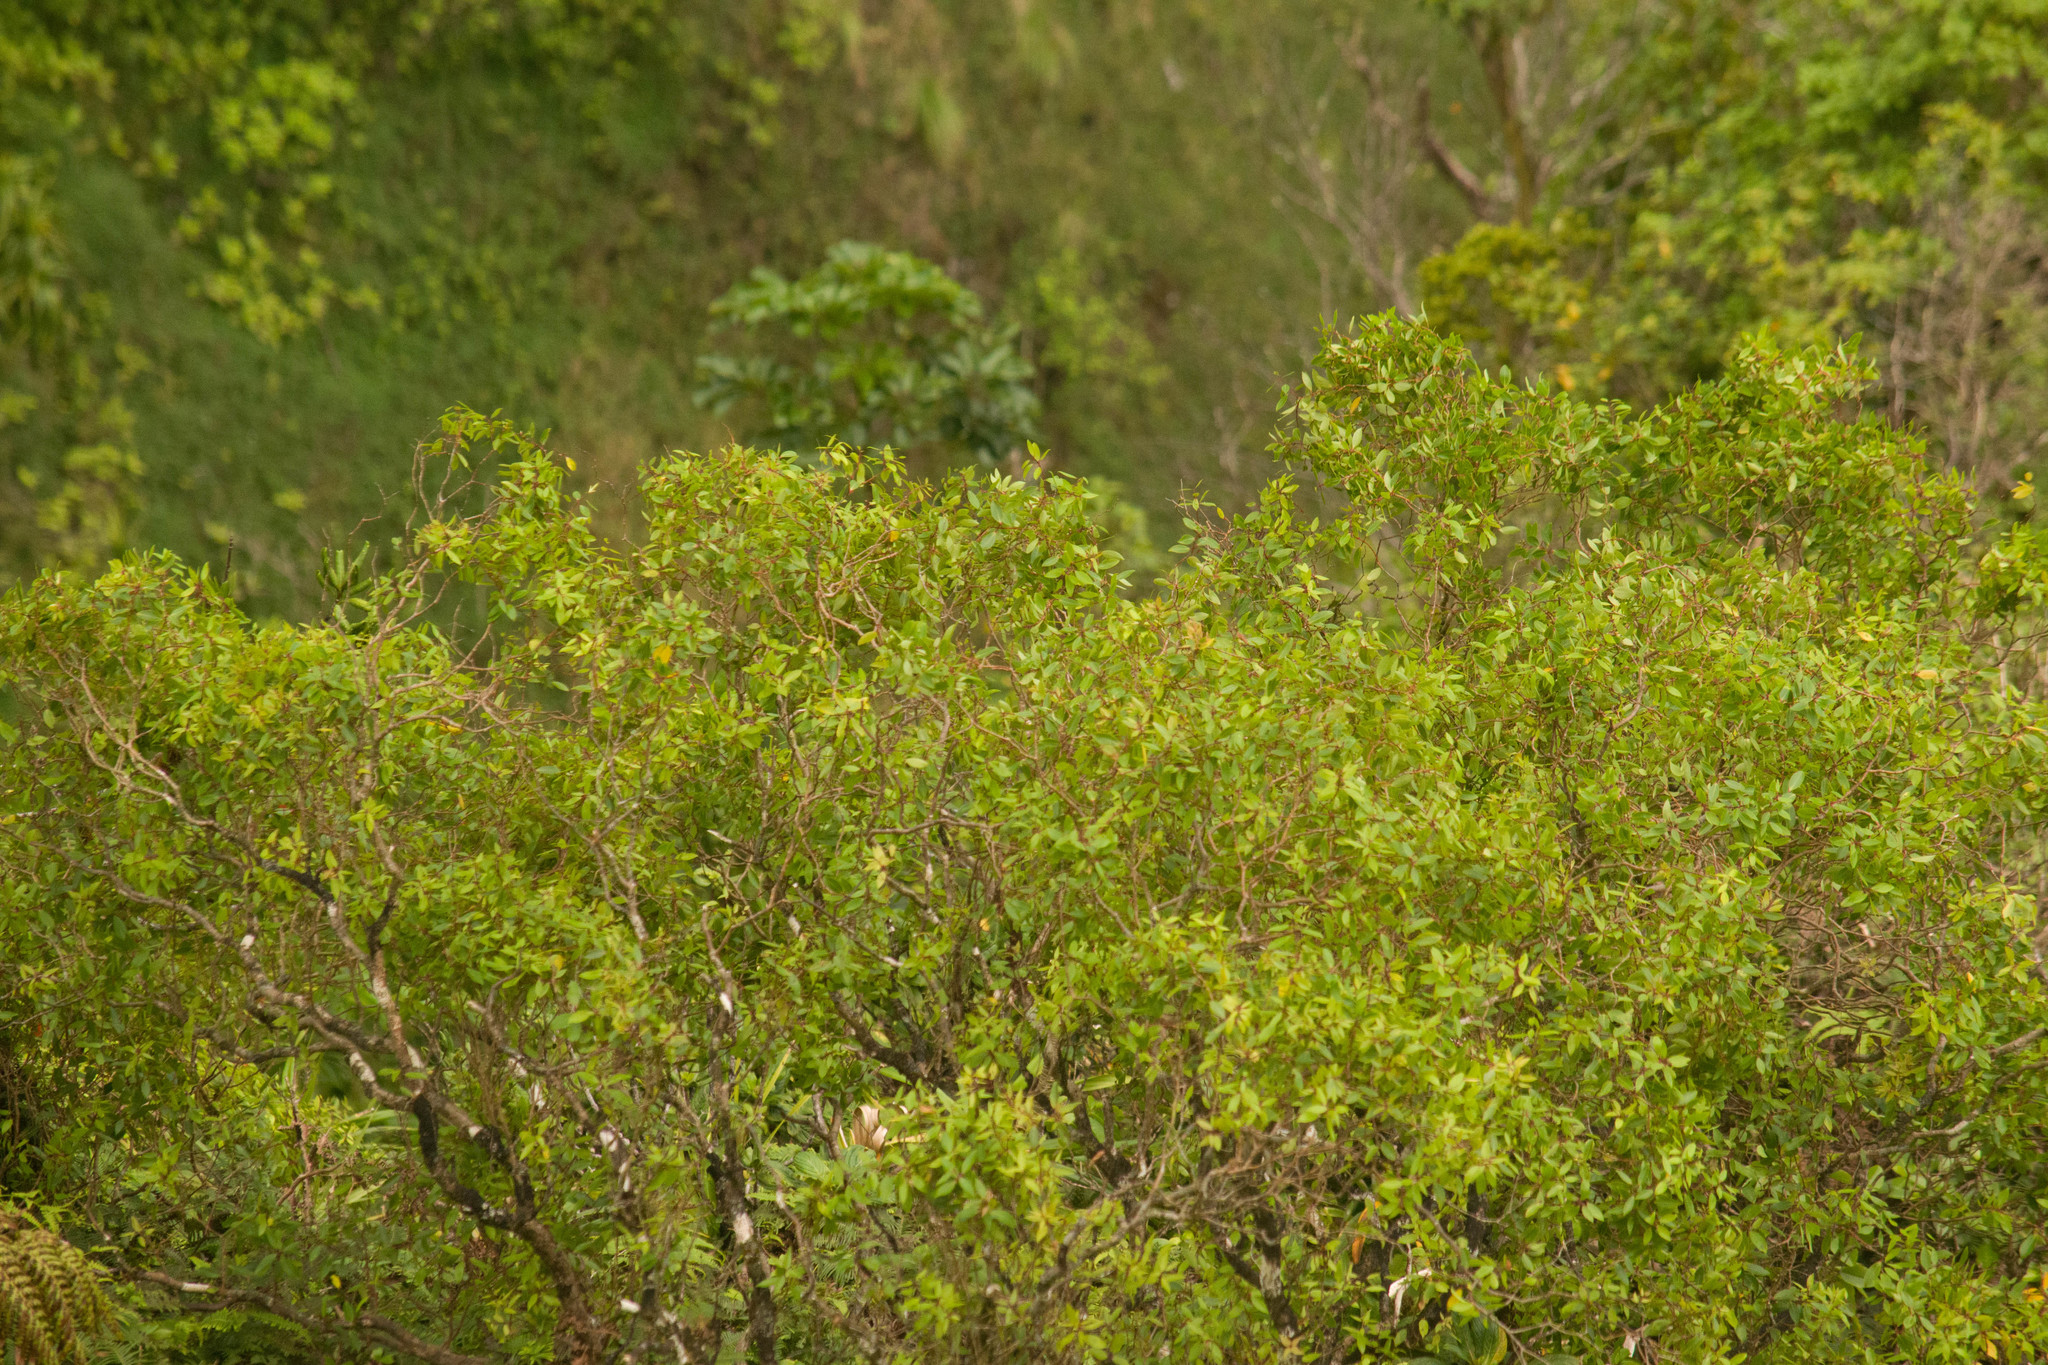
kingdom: Plantae
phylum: Tracheophyta
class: Magnoliopsida
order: Myrtales
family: Myrtaceae
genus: Metrosideros
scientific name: Metrosideros tremuloides
